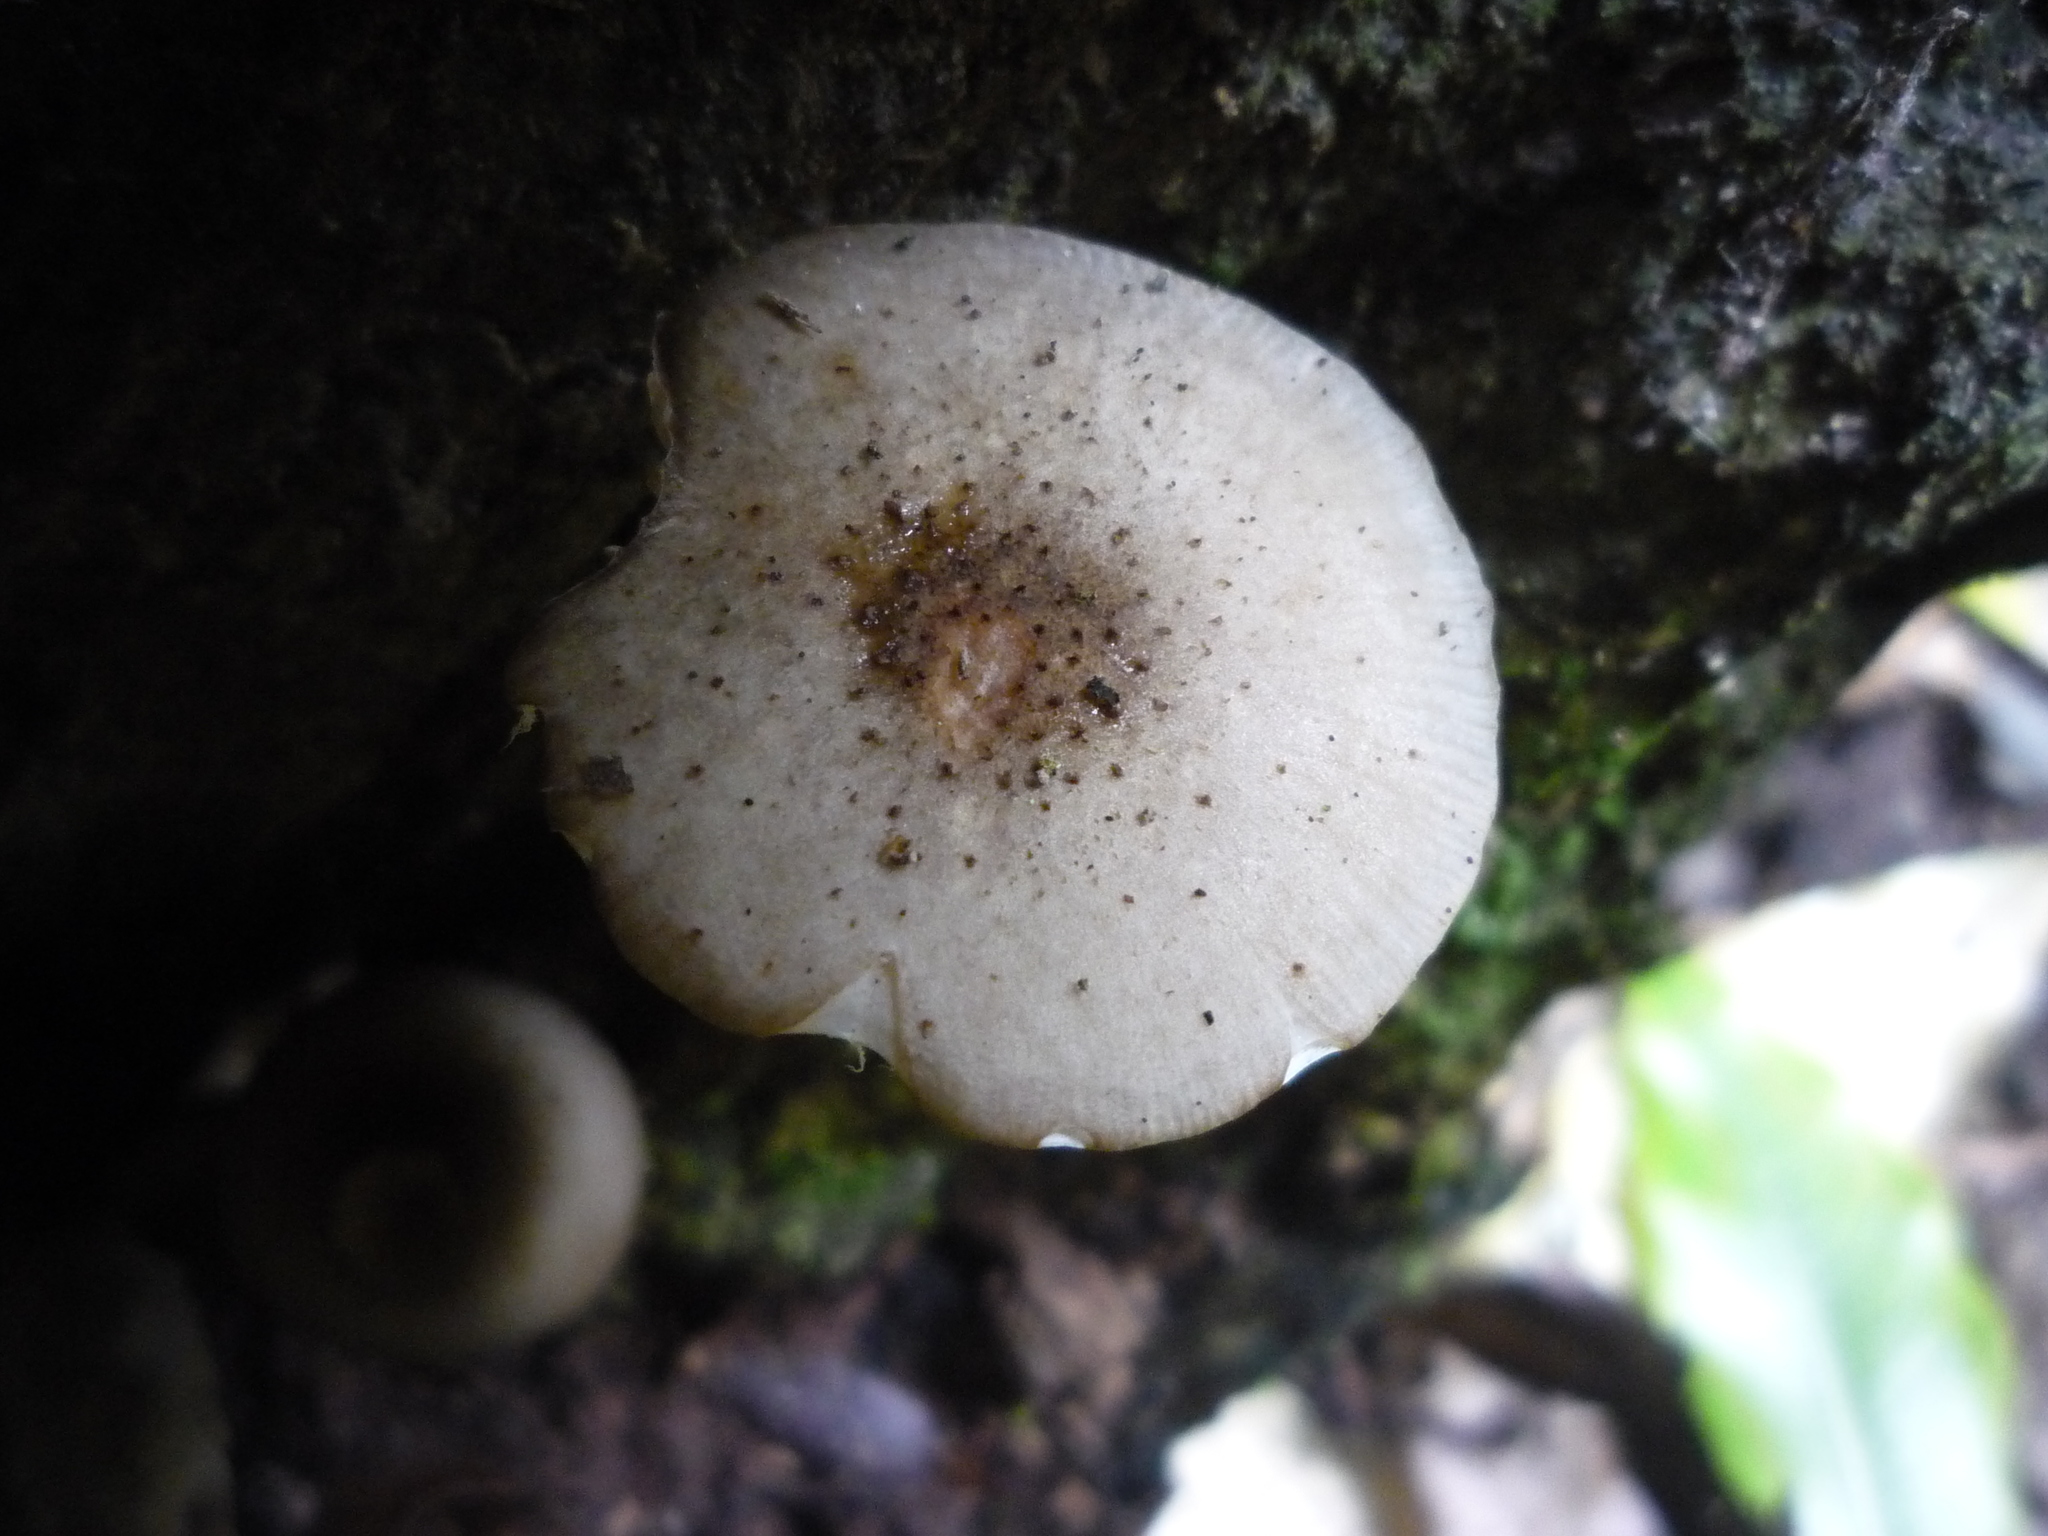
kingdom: Fungi
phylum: Basidiomycota
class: Agaricomycetes
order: Agaricales
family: Physalacriaceae
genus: Armillaria
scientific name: Armillaria limonea
